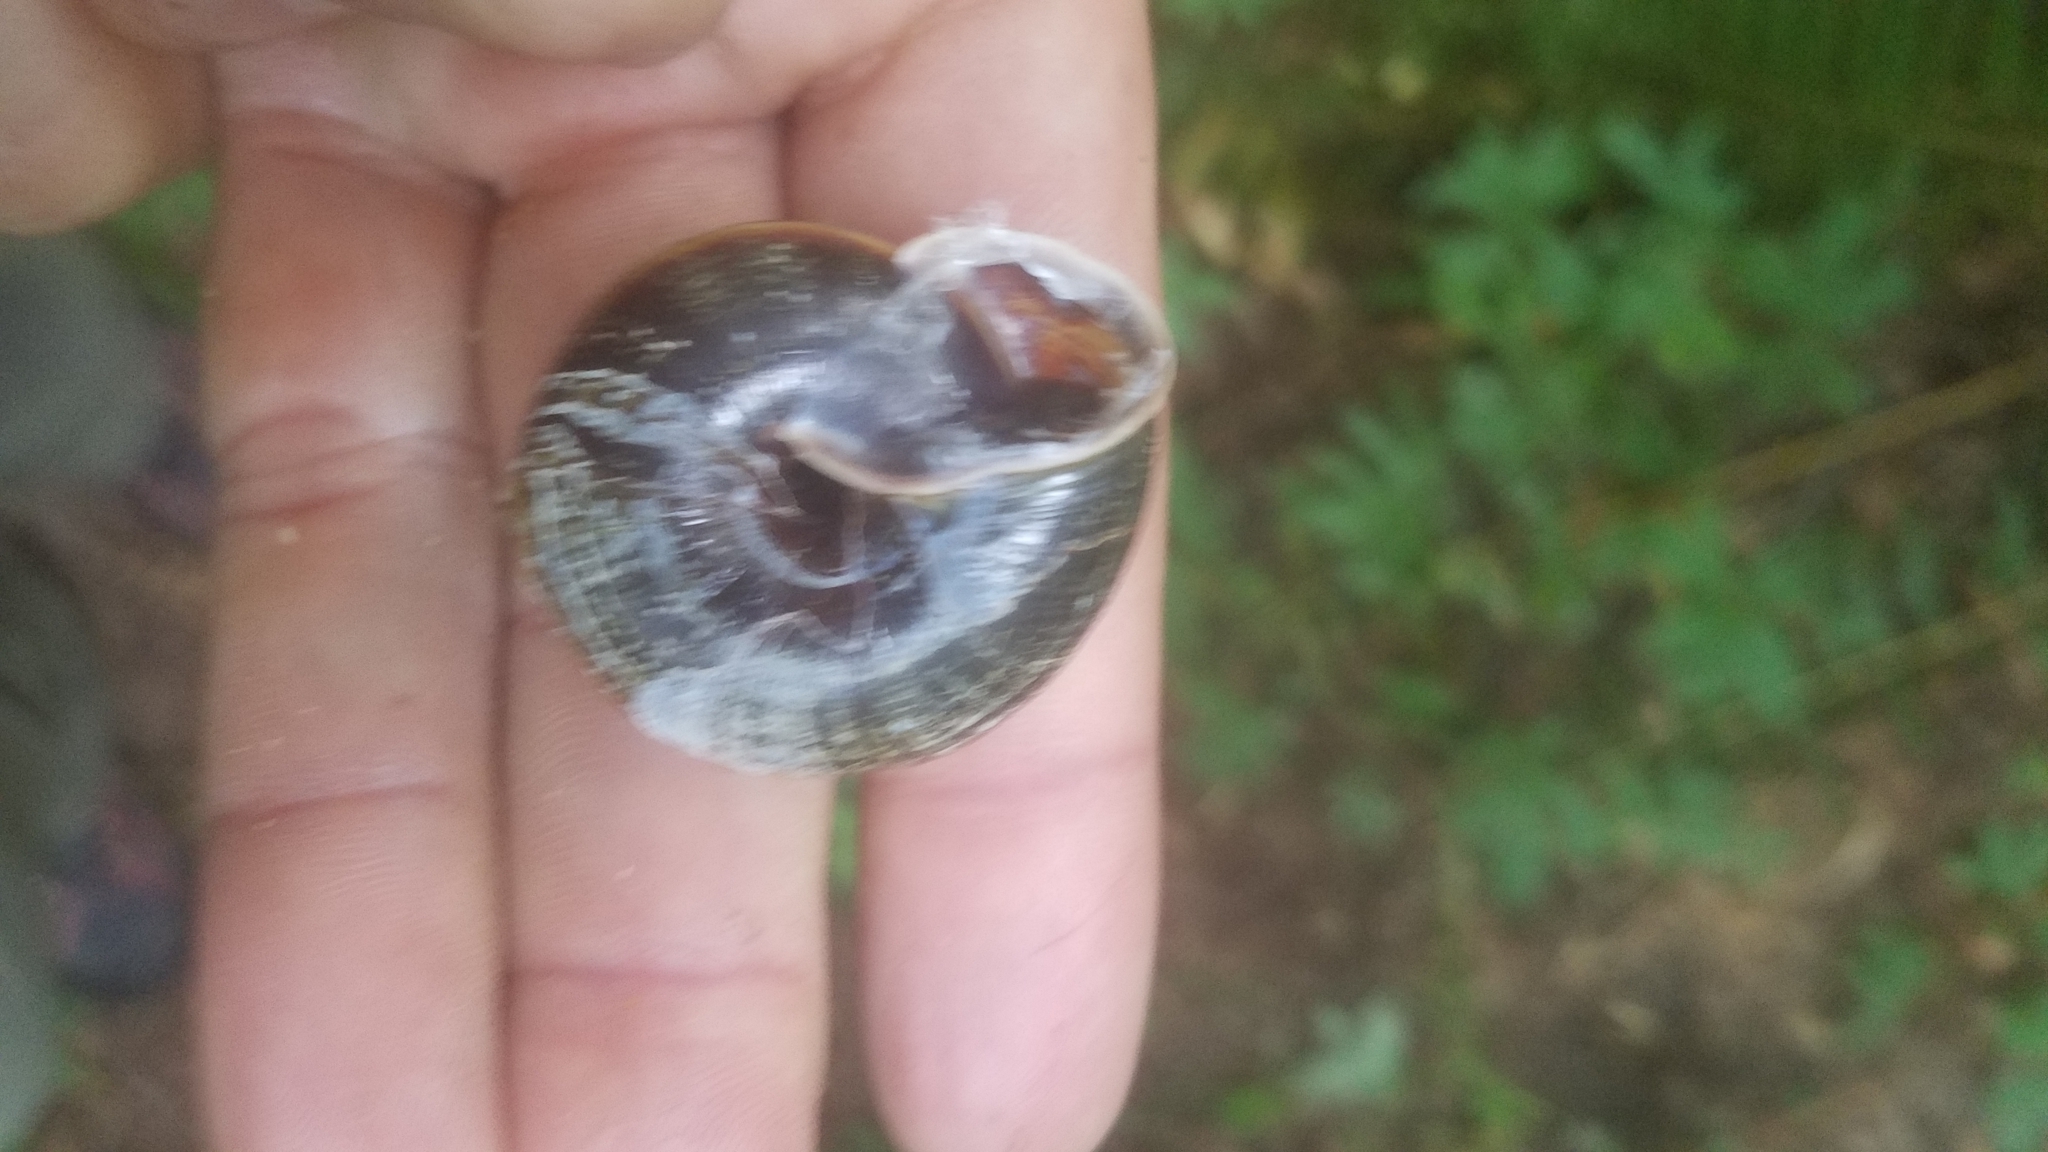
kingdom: Animalia
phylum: Mollusca
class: Gastropoda
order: Stylommatophora
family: Xanthonychidae
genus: Monadenia
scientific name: Monadenia fidelis
